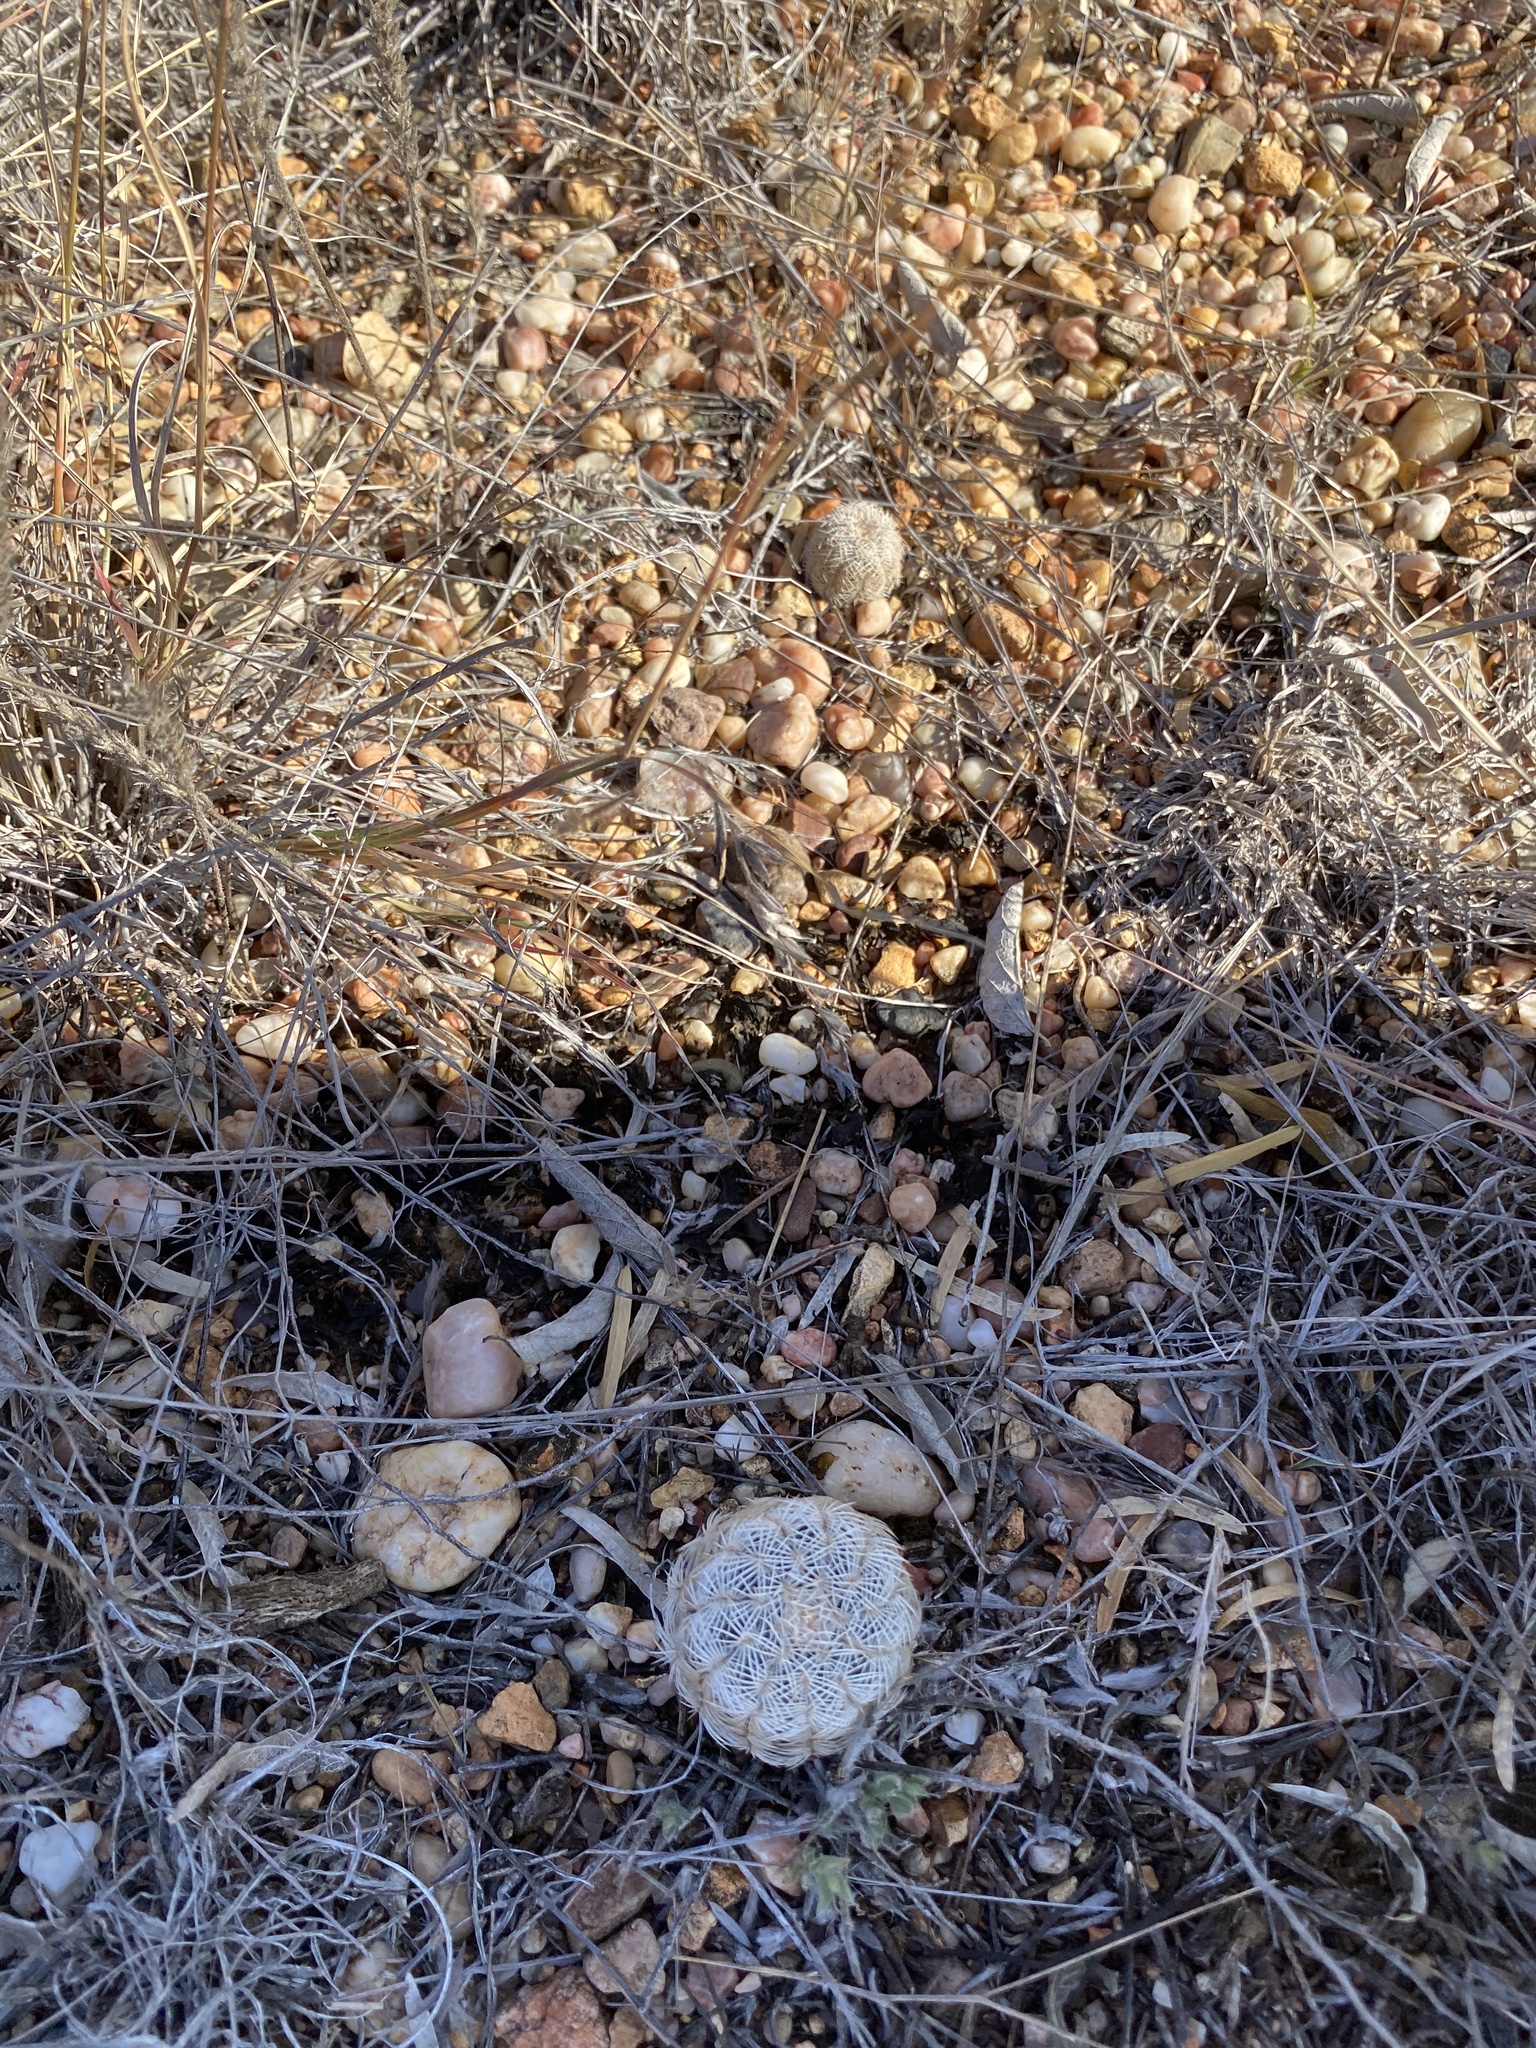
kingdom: Plantae
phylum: Tracheophyta
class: Magnoliopsida
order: Caryophyllales
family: Cactaceae
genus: Echinocereus
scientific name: Echinocereus reichenbachii
